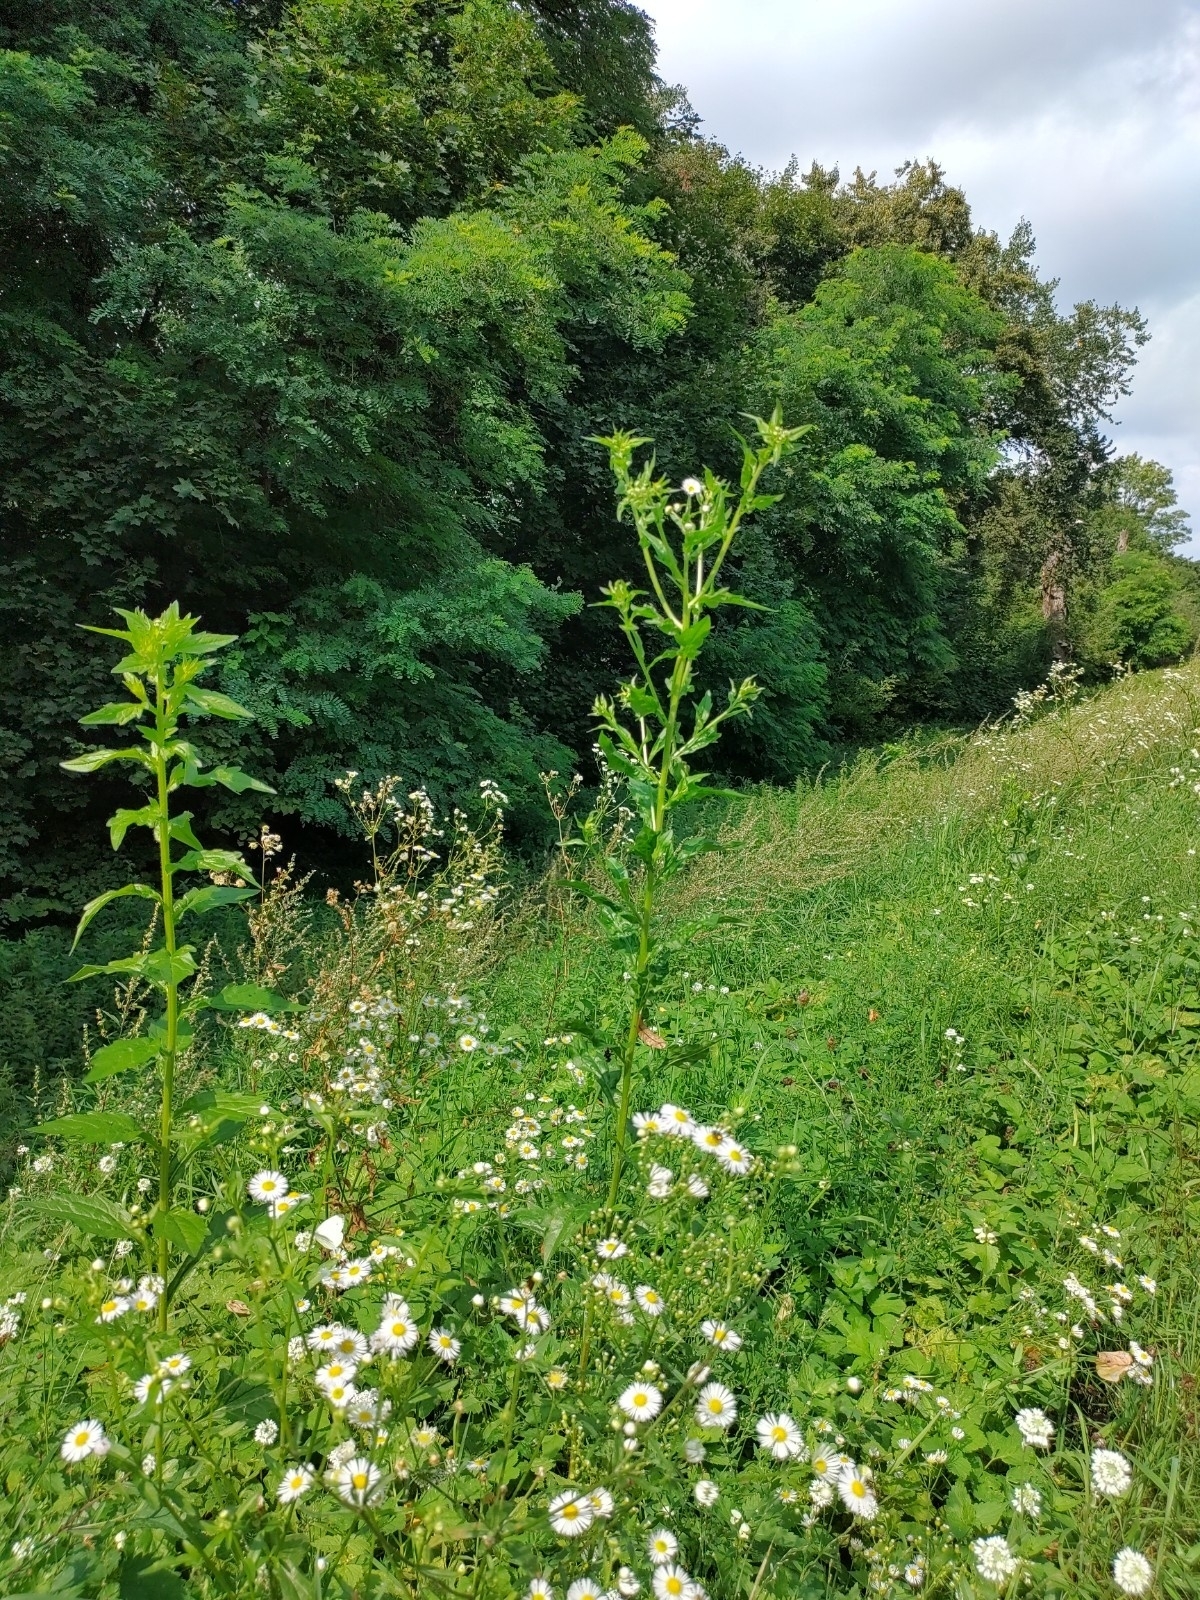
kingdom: Plantae
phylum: Tracheophyta
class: Magnoliopsida
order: Asterales
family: Asteraceae
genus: Erigeron
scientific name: Erigeron annuus
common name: Tall fleabane
